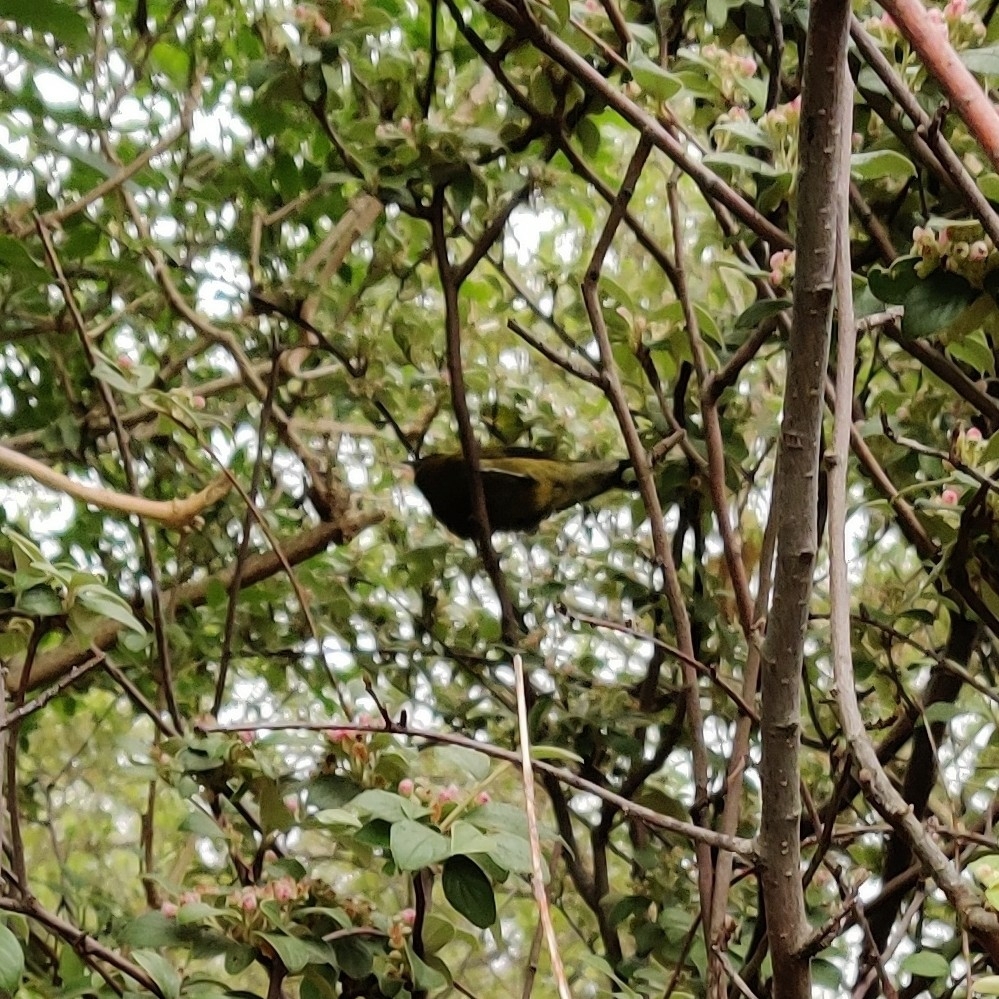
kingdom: Animalia
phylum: Chordata
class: Aves
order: Passeriformes
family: Meliphagidae
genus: Anthornis
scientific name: Anthornis melanura
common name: New zealand bellbird
